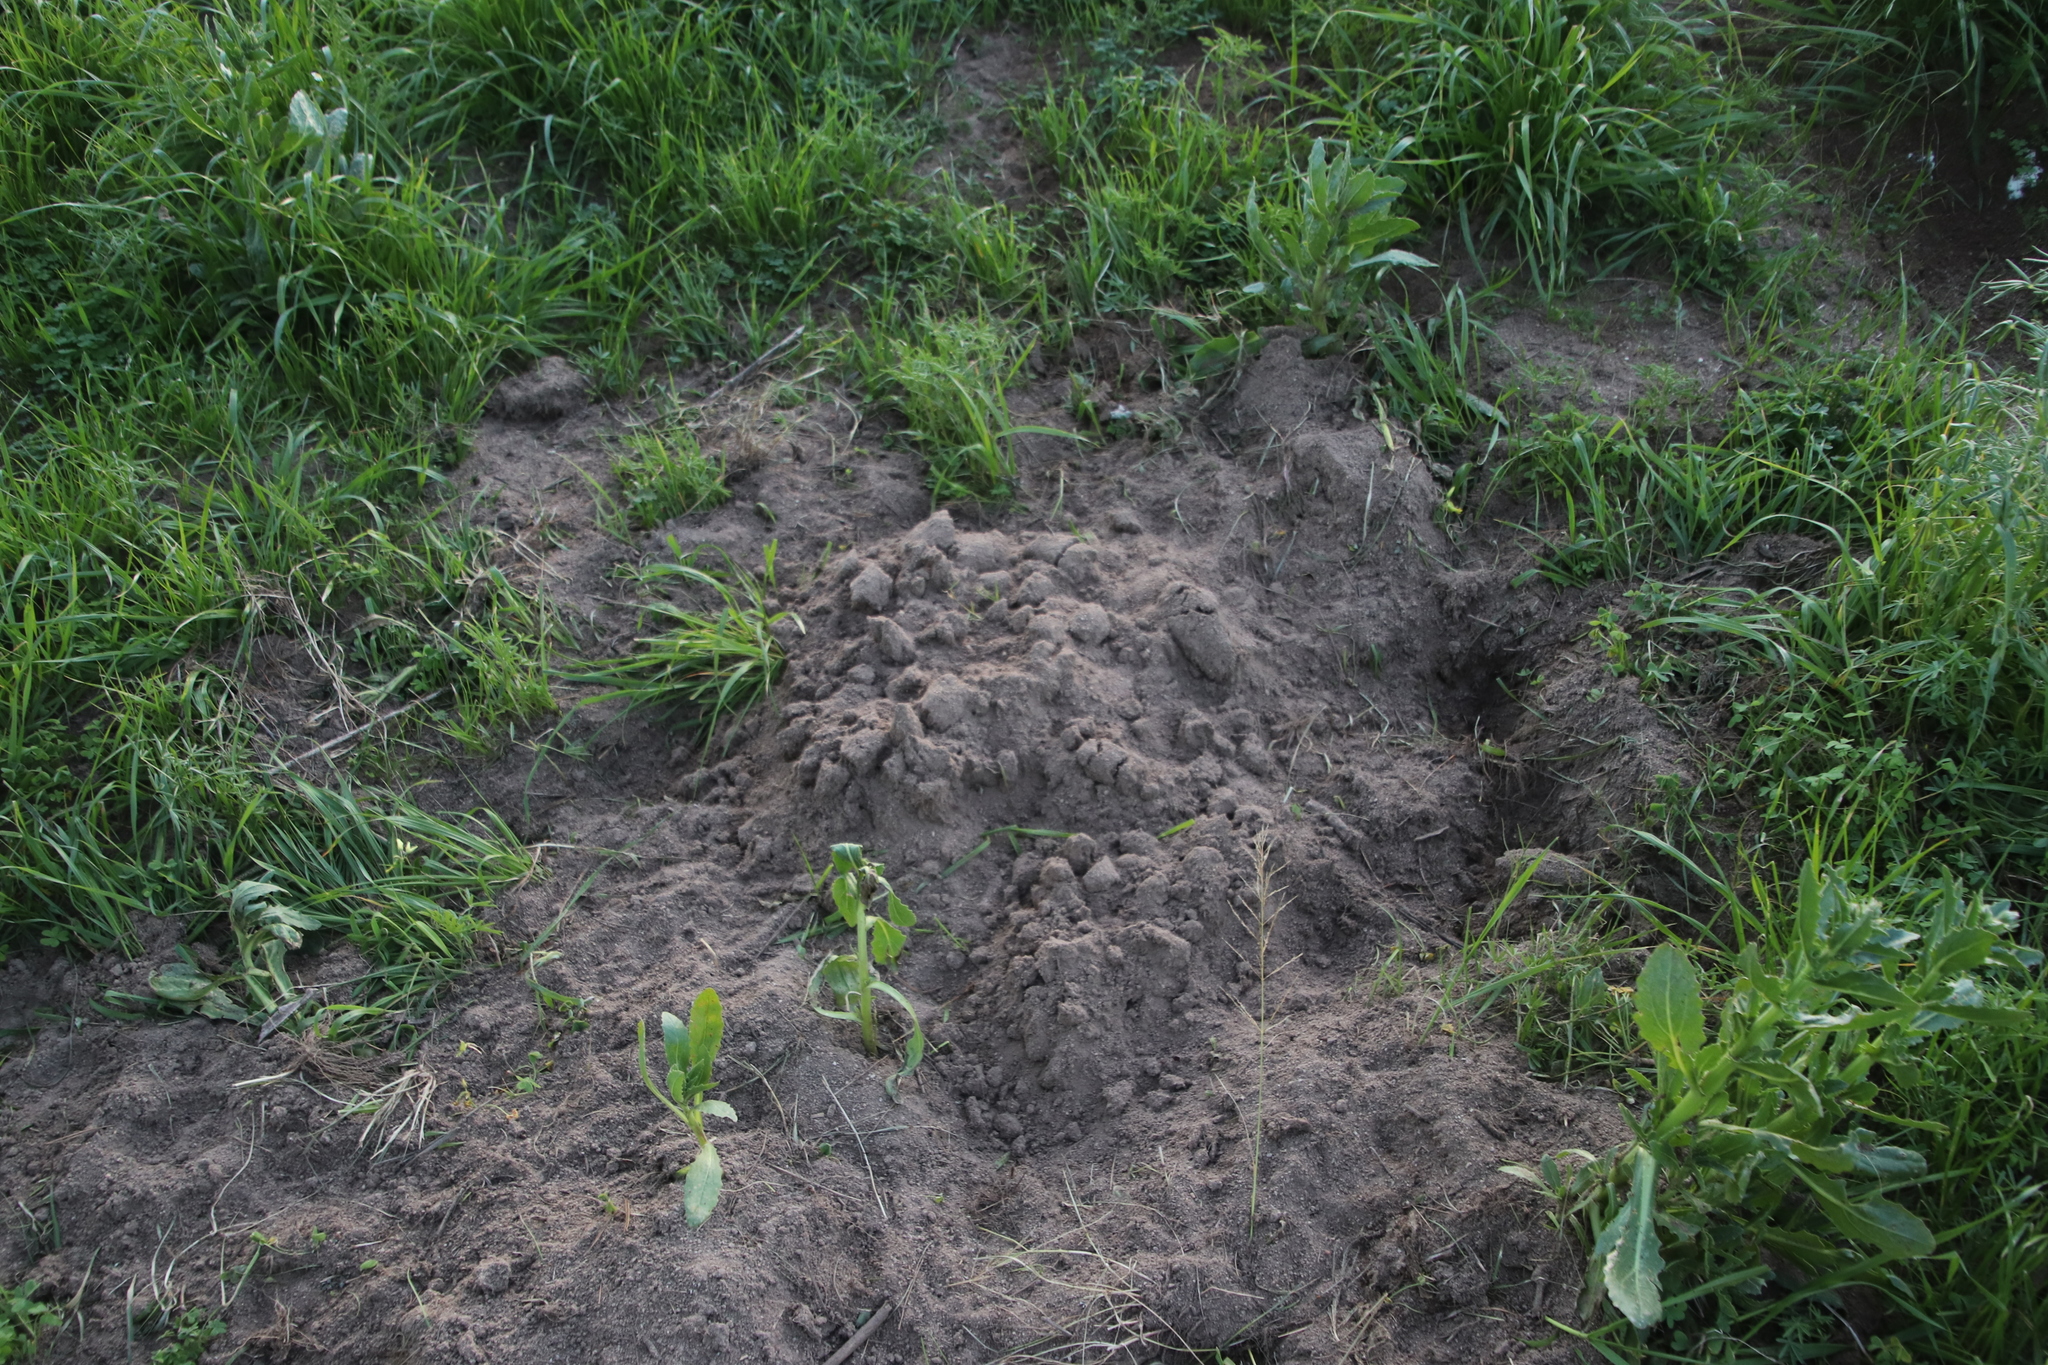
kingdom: Animalia
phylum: Chordata
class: Mammalia
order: Rodentia
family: Bathyergidae
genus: Bathyergus
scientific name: Bathyergus suillus
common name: Cape dune mole rat
